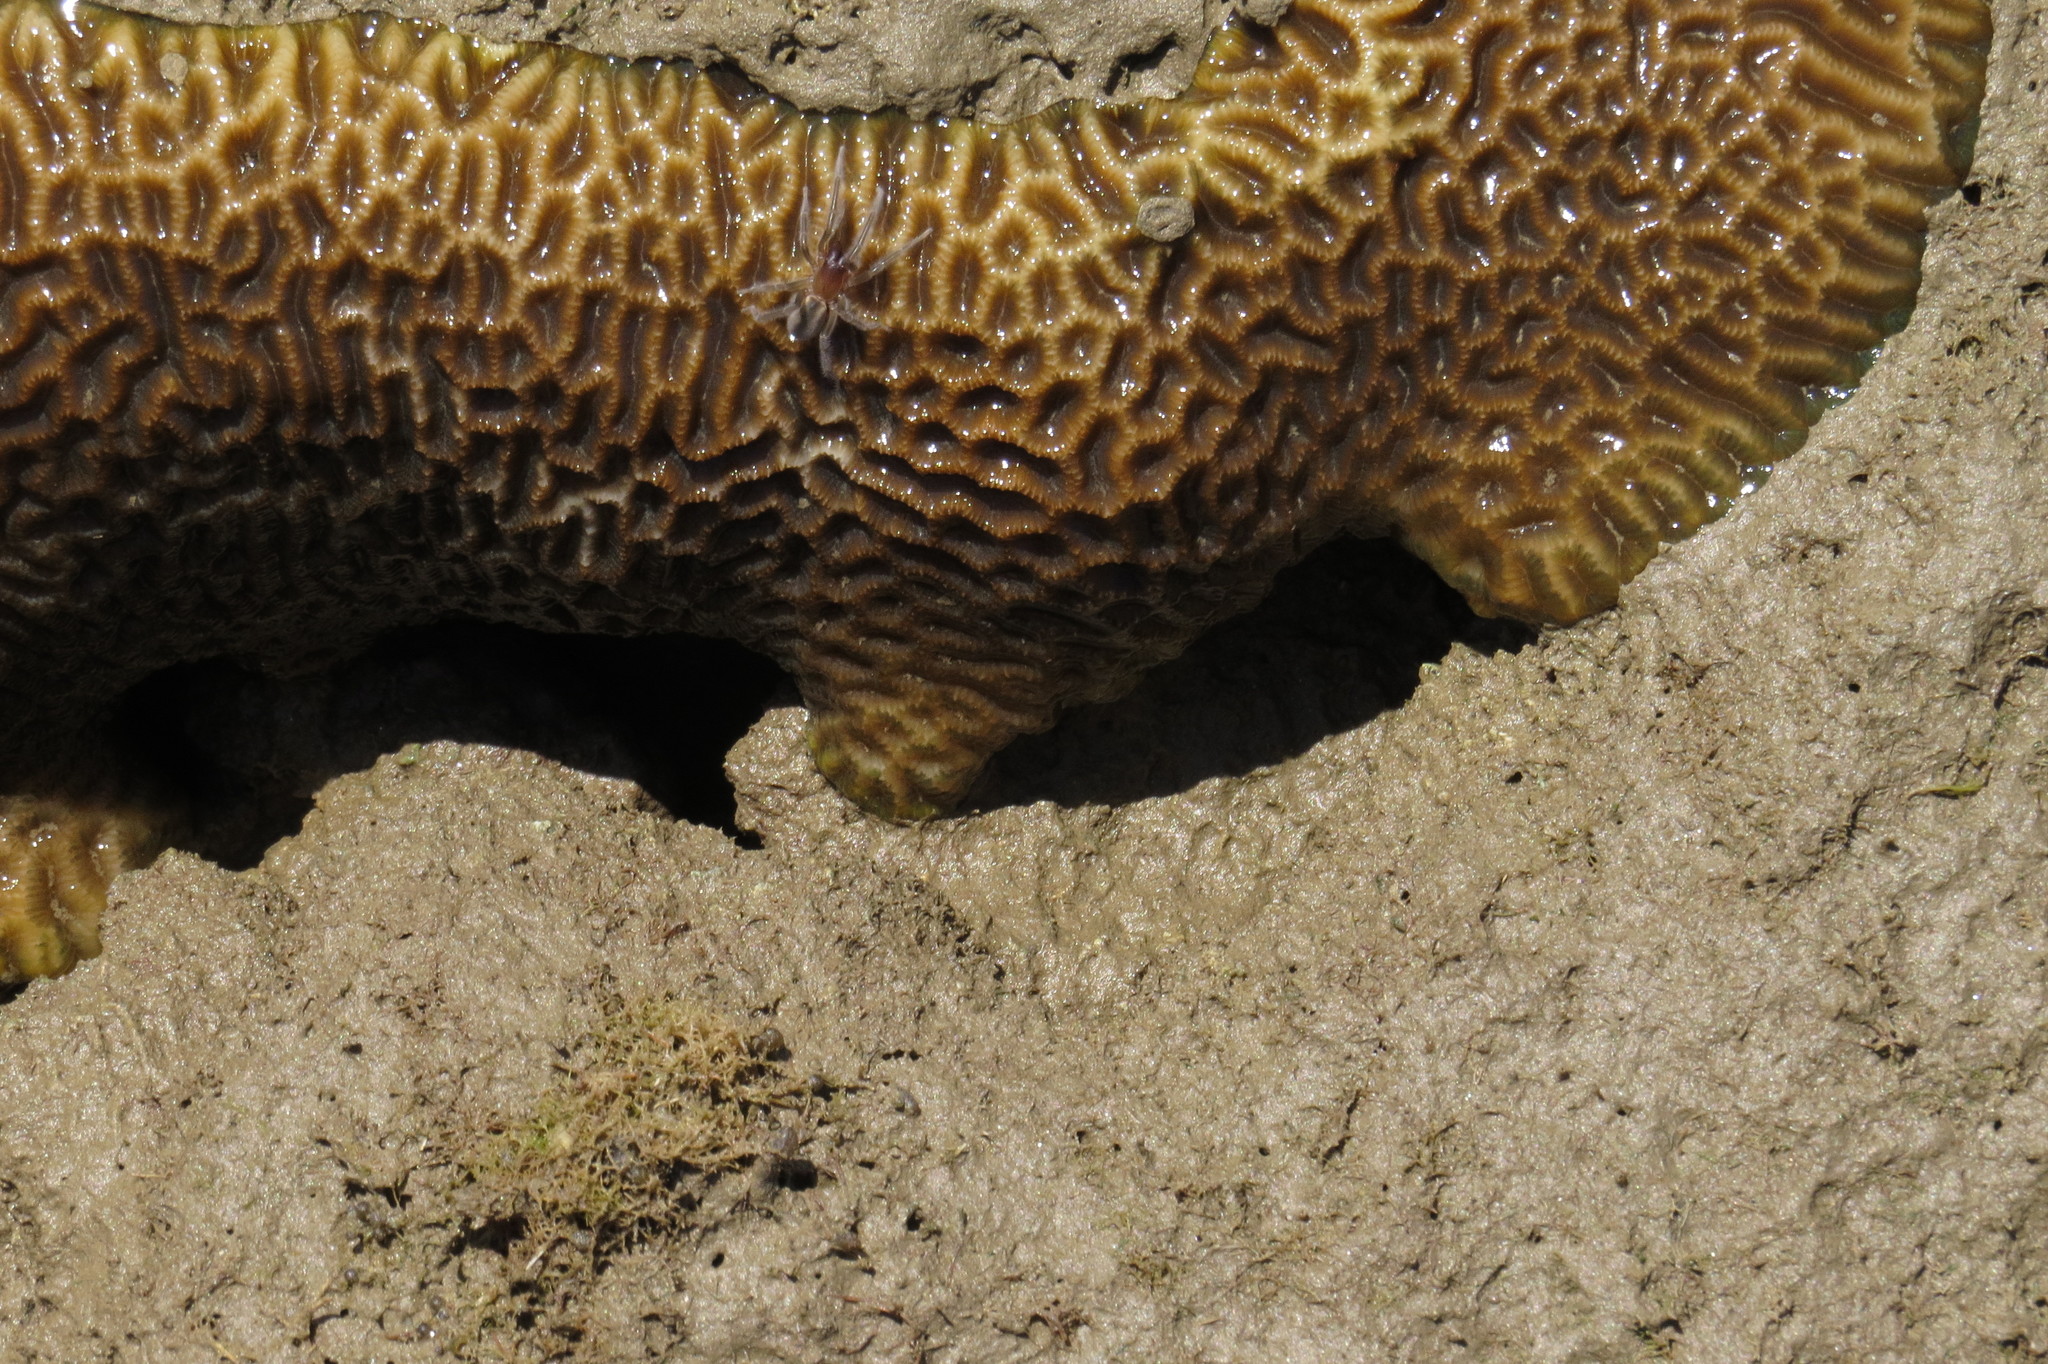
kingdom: Animalia
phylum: Arthropoda
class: Arachnida
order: Araneae
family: Desidae
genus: Desis
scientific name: Desis bobmarleyi
